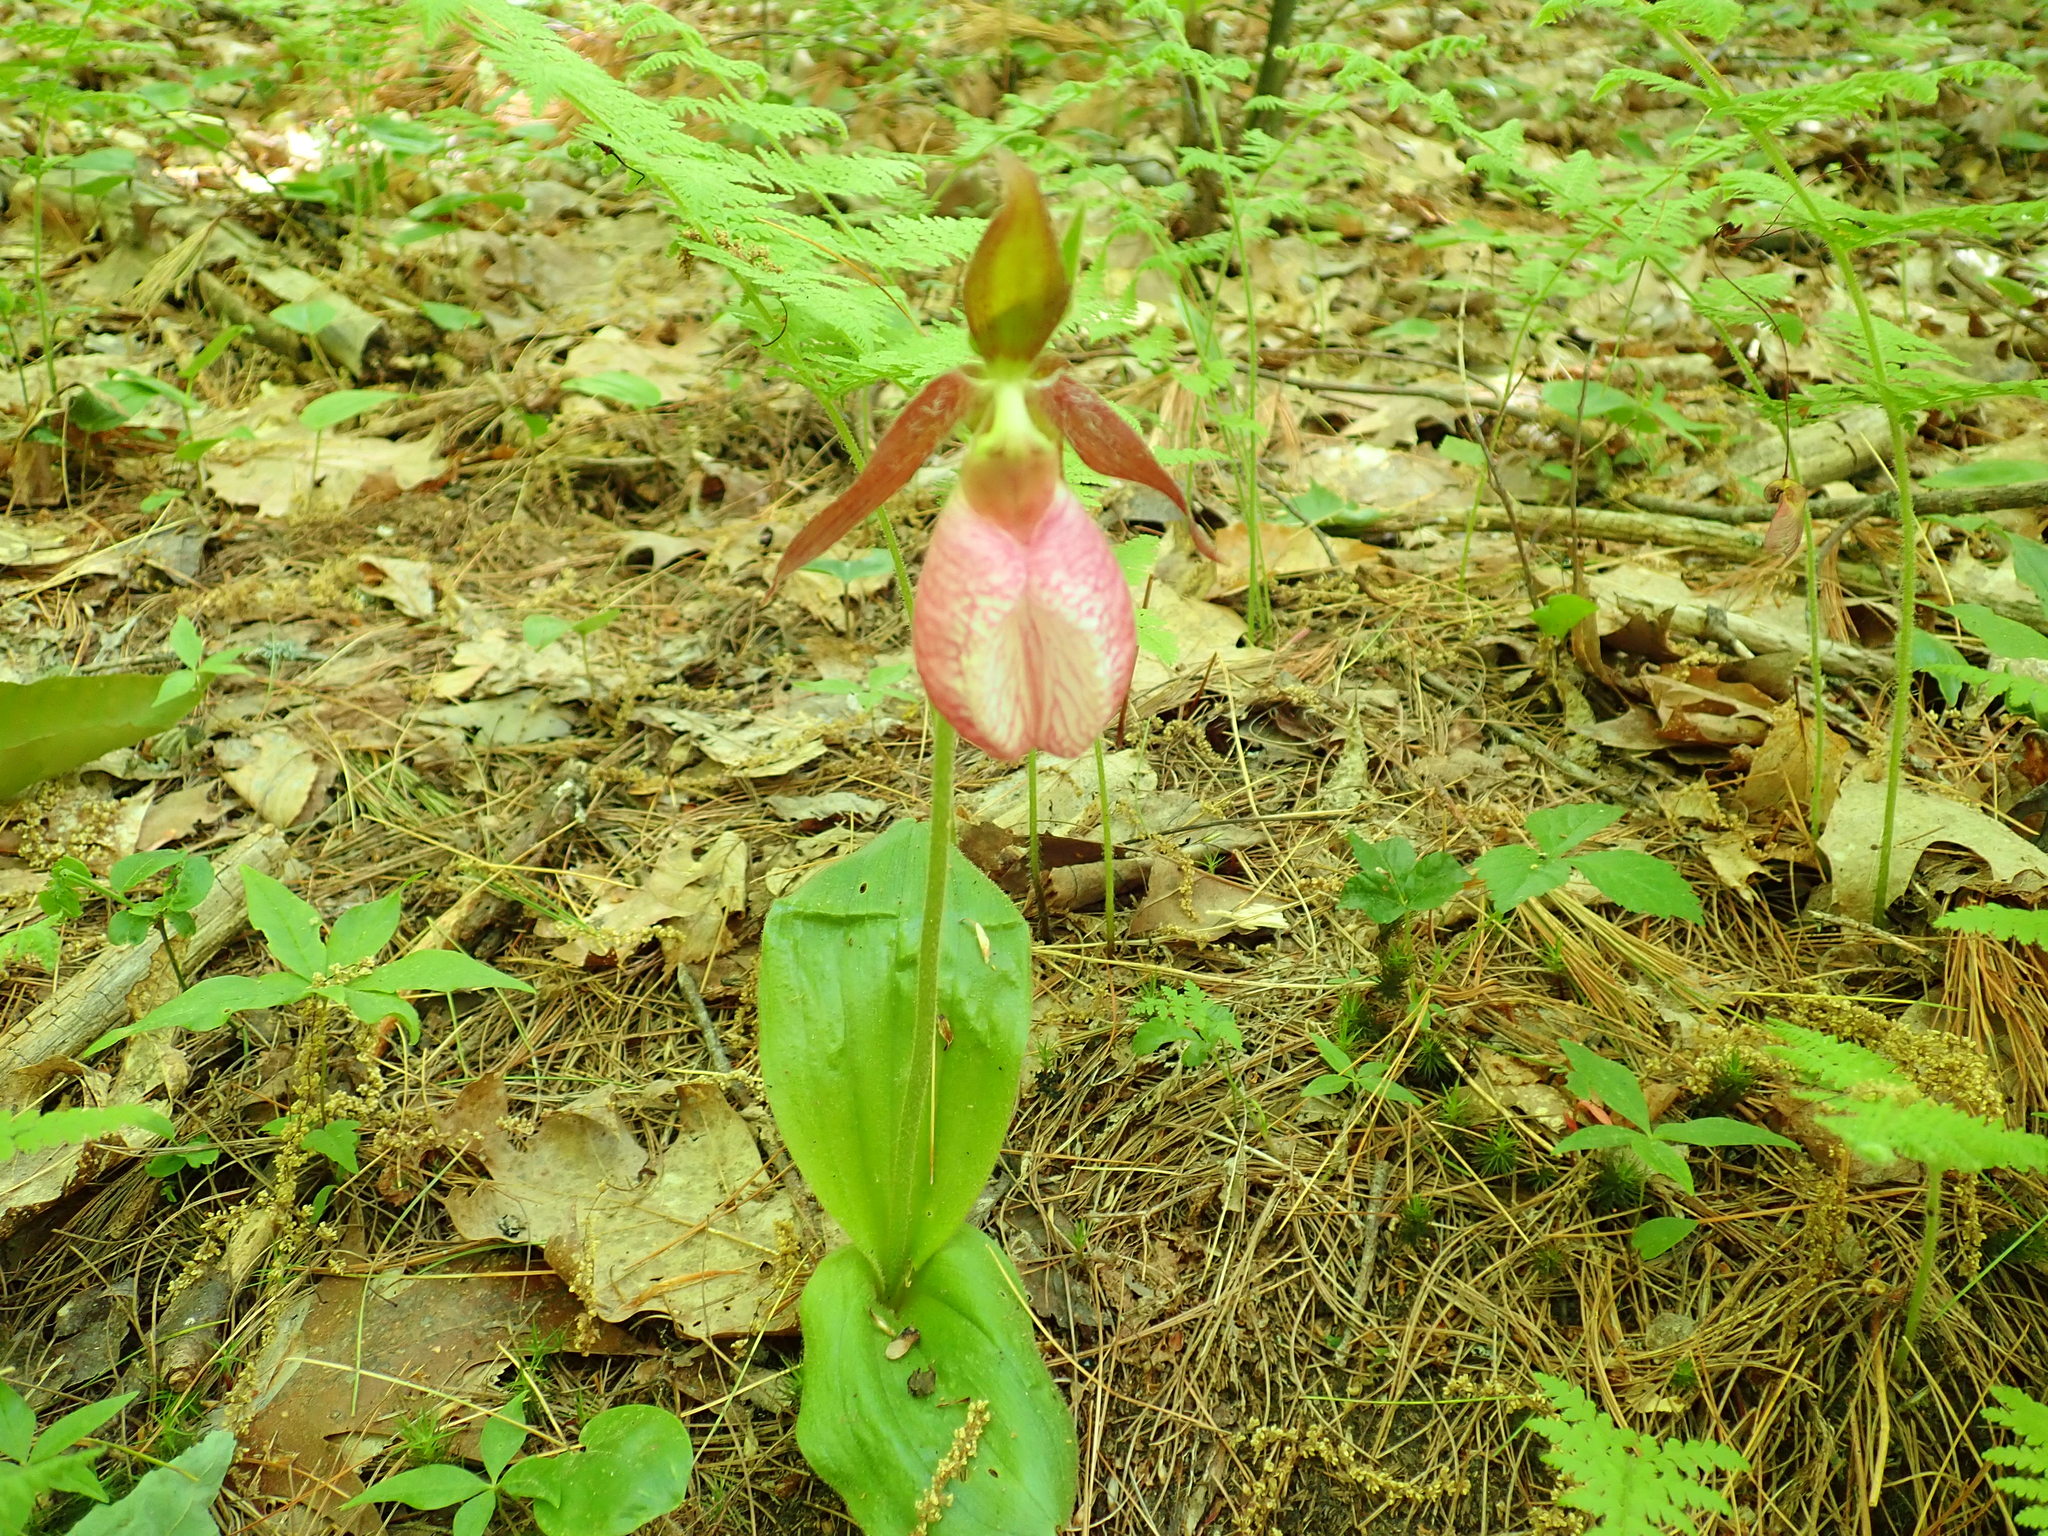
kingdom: Plantae
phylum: Tracheophyta
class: Liliopsida
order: Asparagales
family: Orchidaceae
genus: Cypripedium
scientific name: Cypripedium acaule
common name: Pink lady's-slipper
